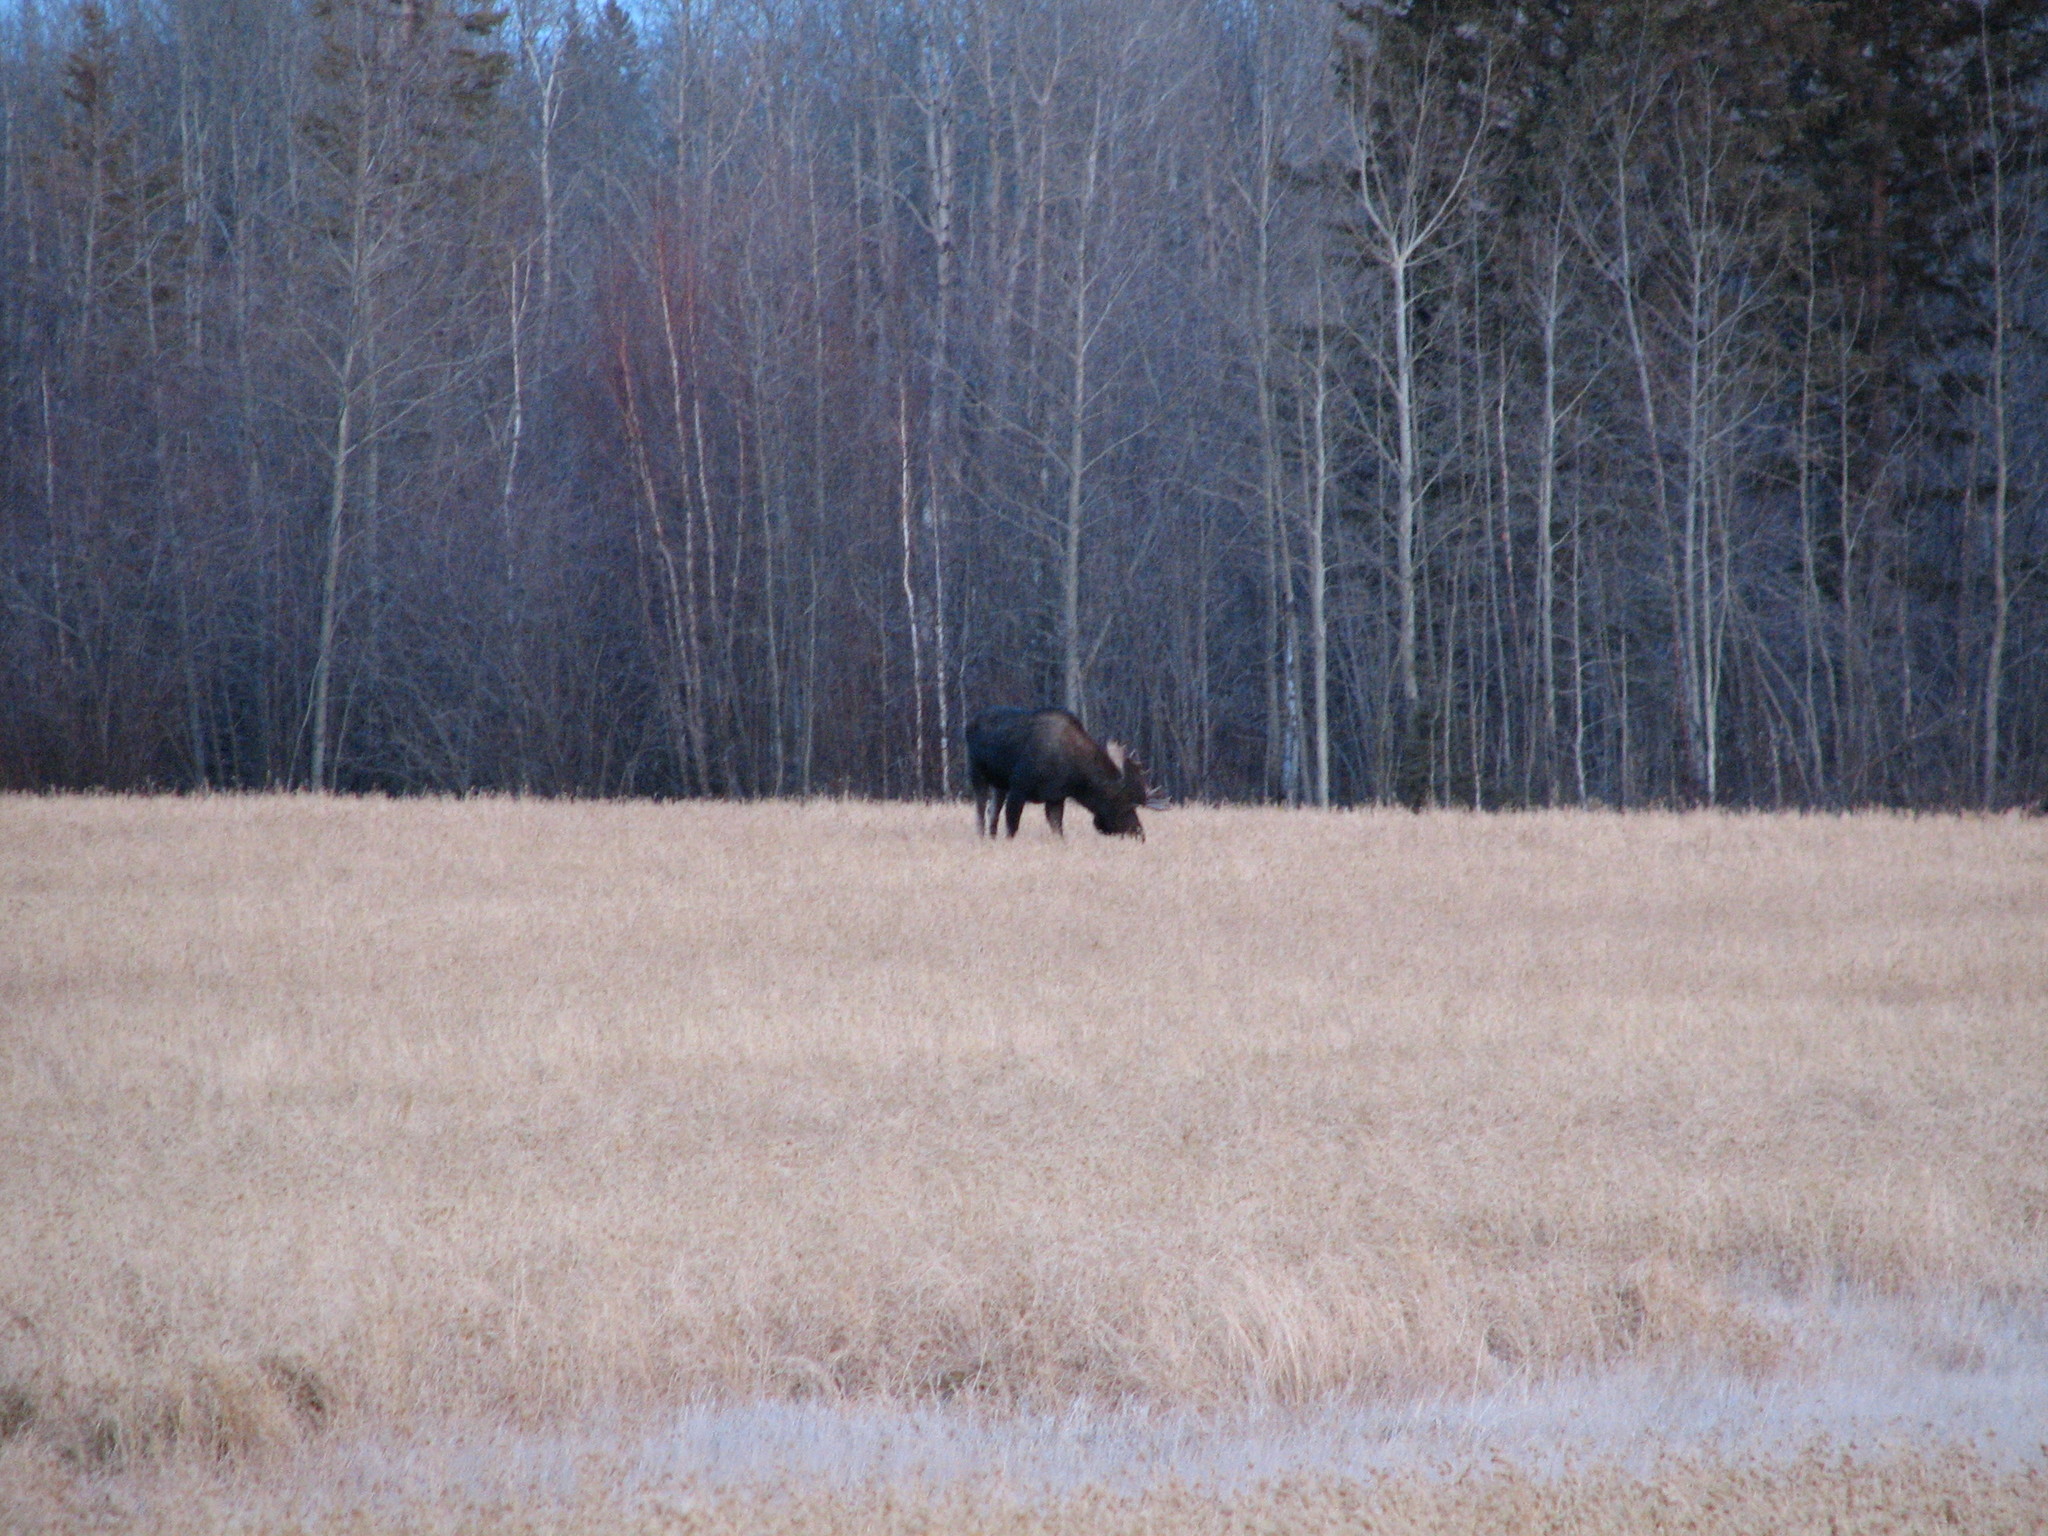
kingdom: Animalia
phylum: Chordata
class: Mammalia
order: Artiodactyla
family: Cervidae
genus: Alces
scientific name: Alces alces
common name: Moose
